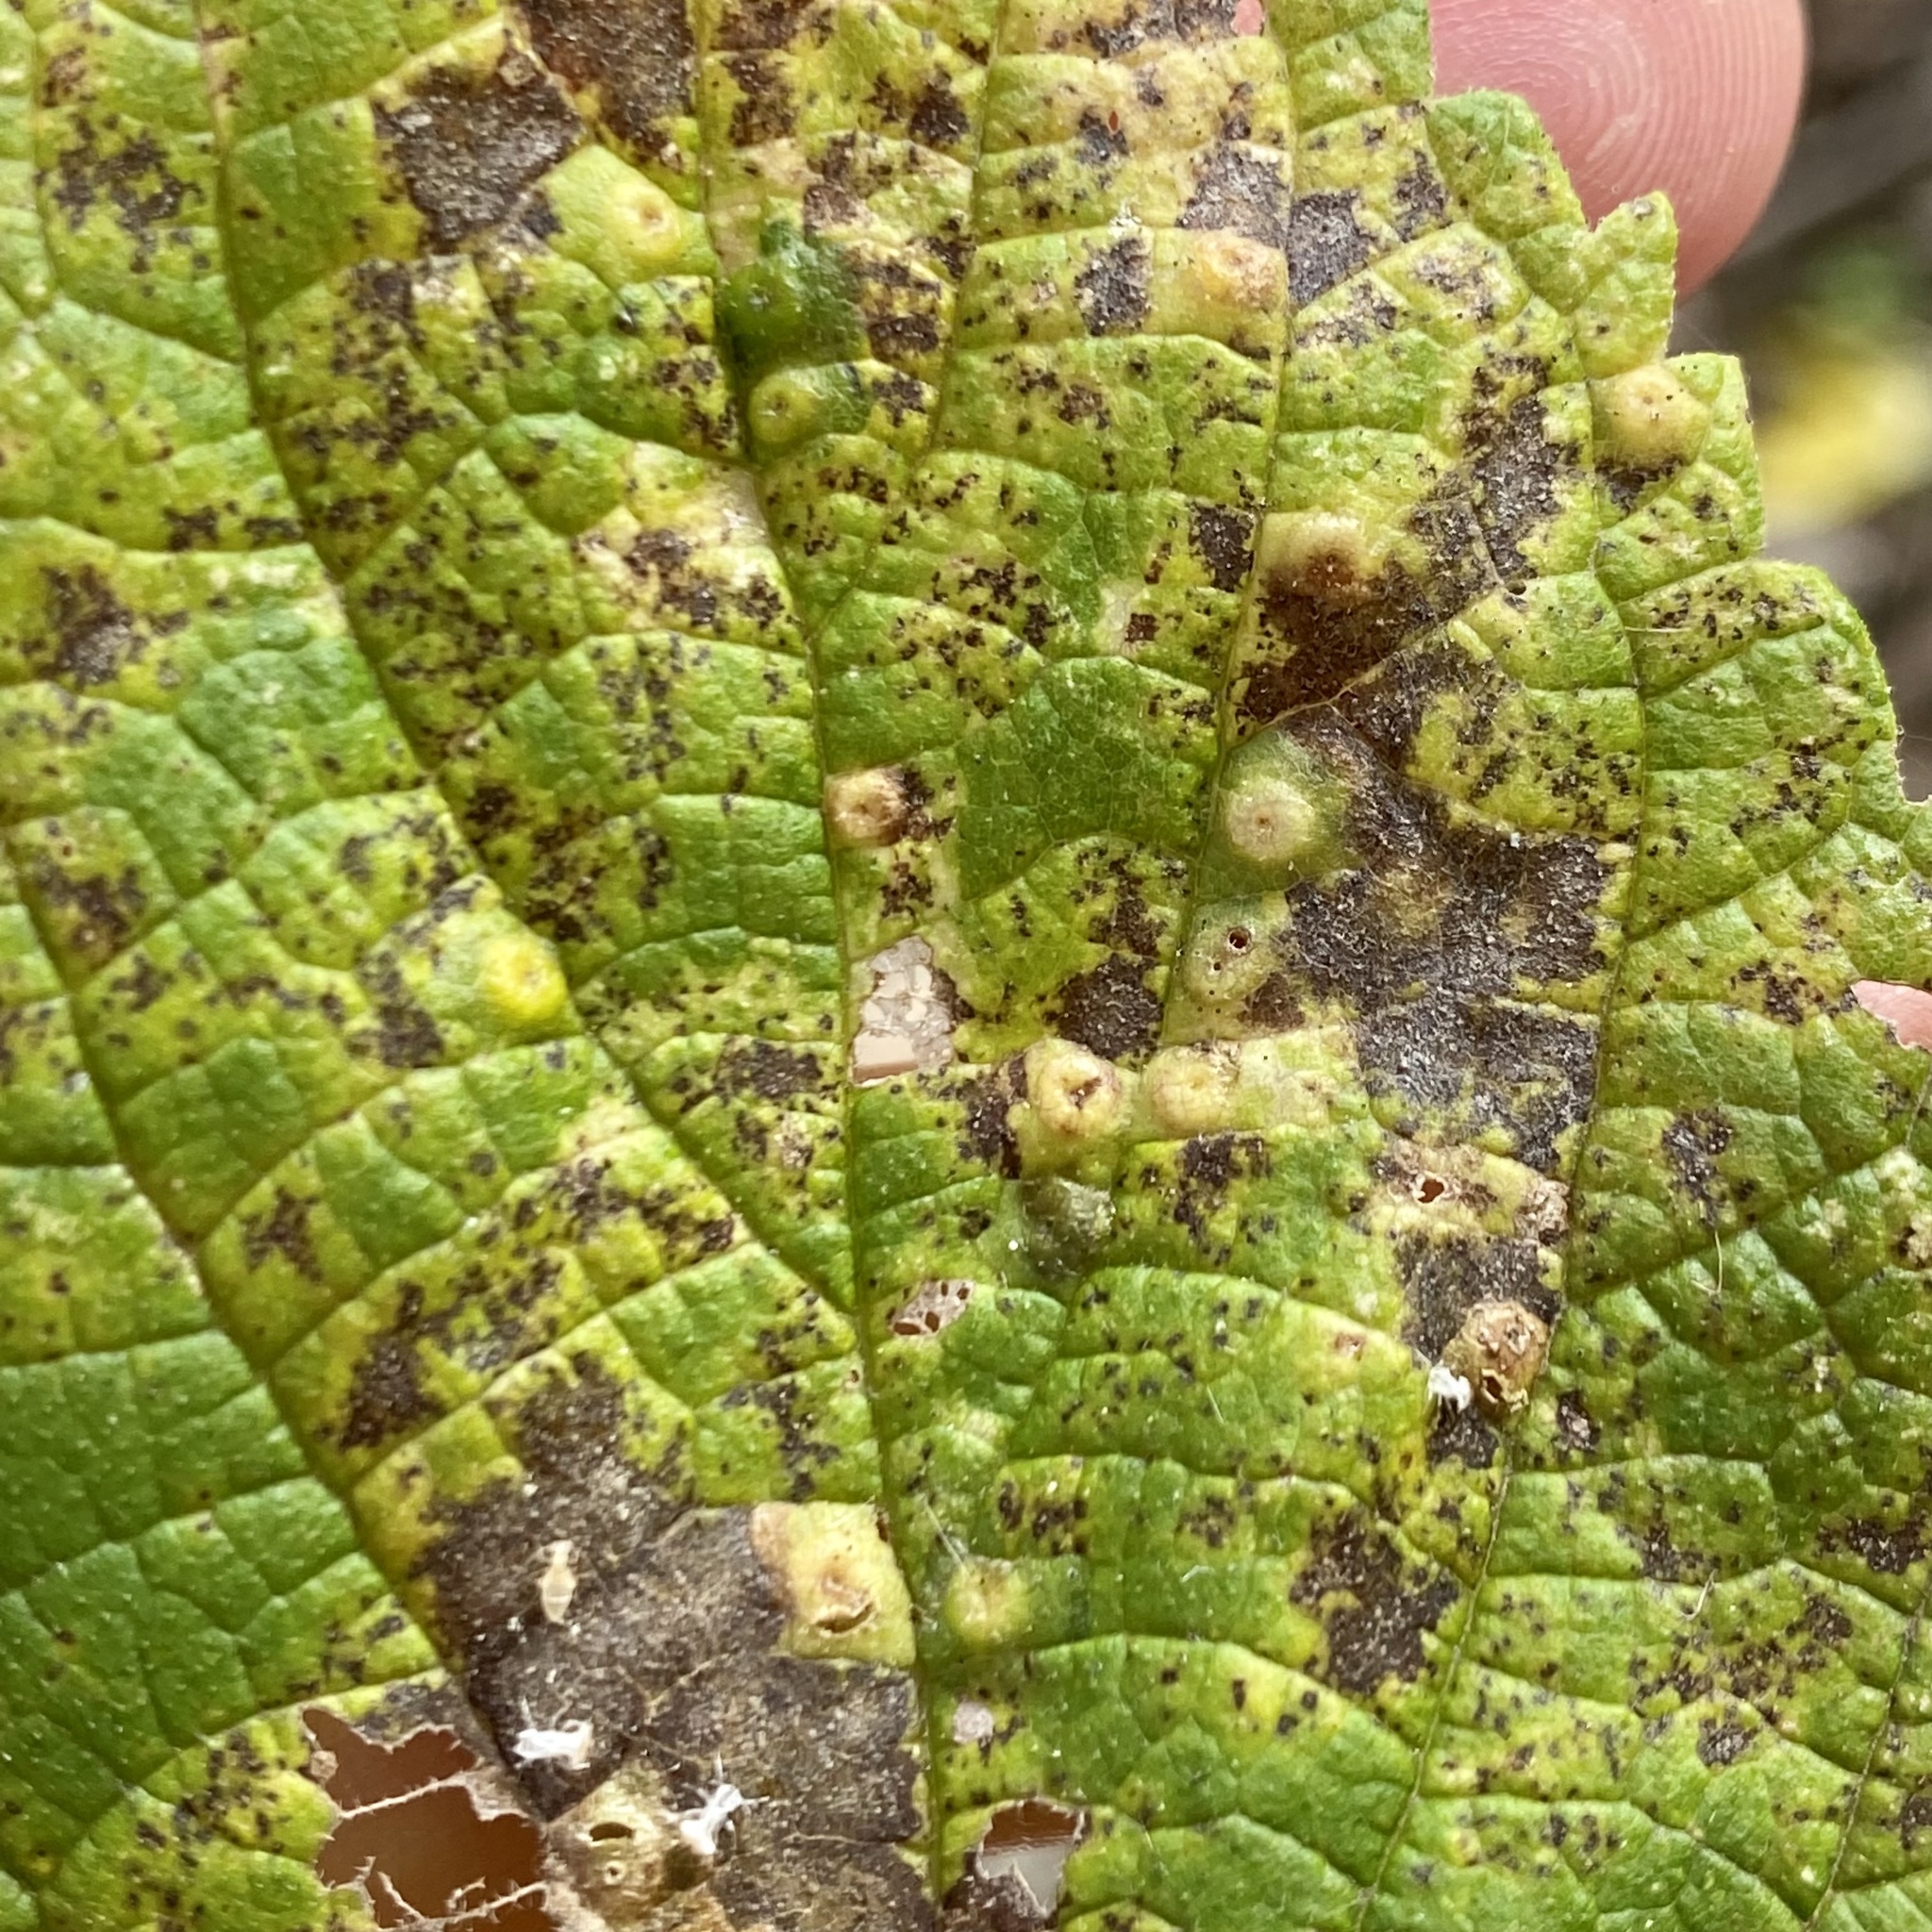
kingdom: Animalia
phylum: Arthropoda
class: Insecta
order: Hemiptera
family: Aphalaridae
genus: Pachypsylla
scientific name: Pachypsylla celtidisvesicula
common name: Hackberry blister gall psyllid
